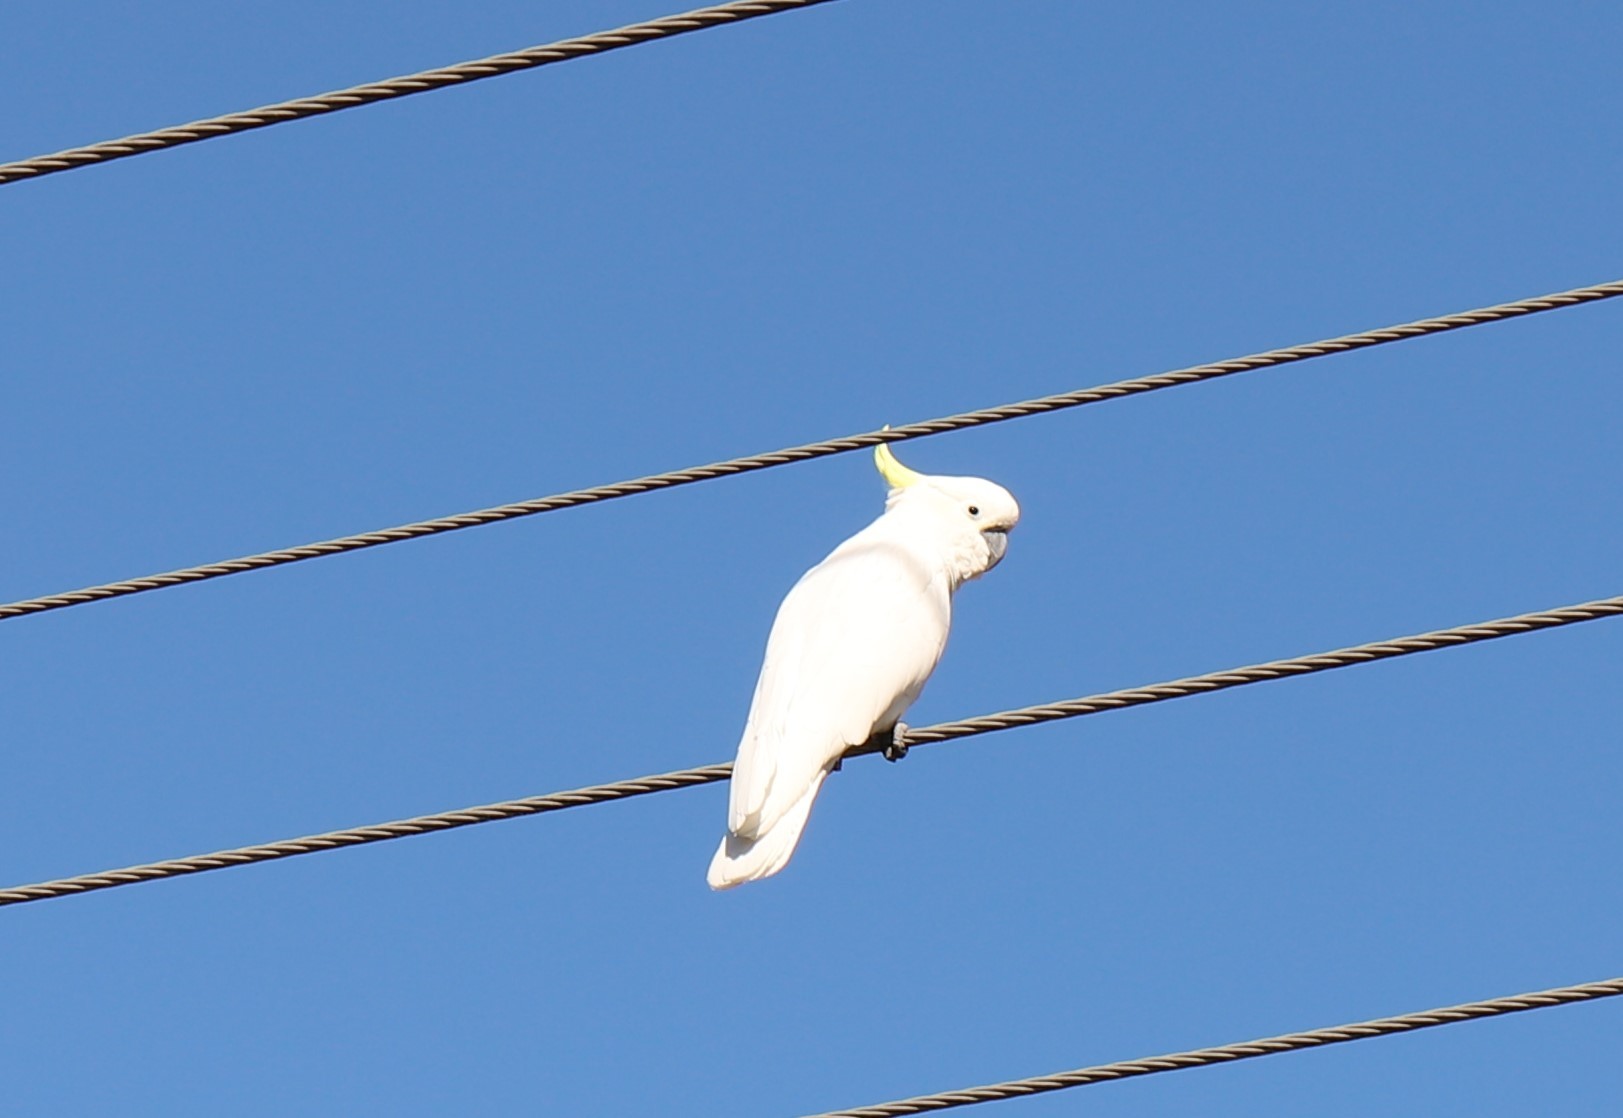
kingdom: Animalia
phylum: Chordata
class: Aves
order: Psittaciformes
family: Psittacidae
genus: Cacatua
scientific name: Cacatua galerita
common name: Sulphur-crested cockatoo
